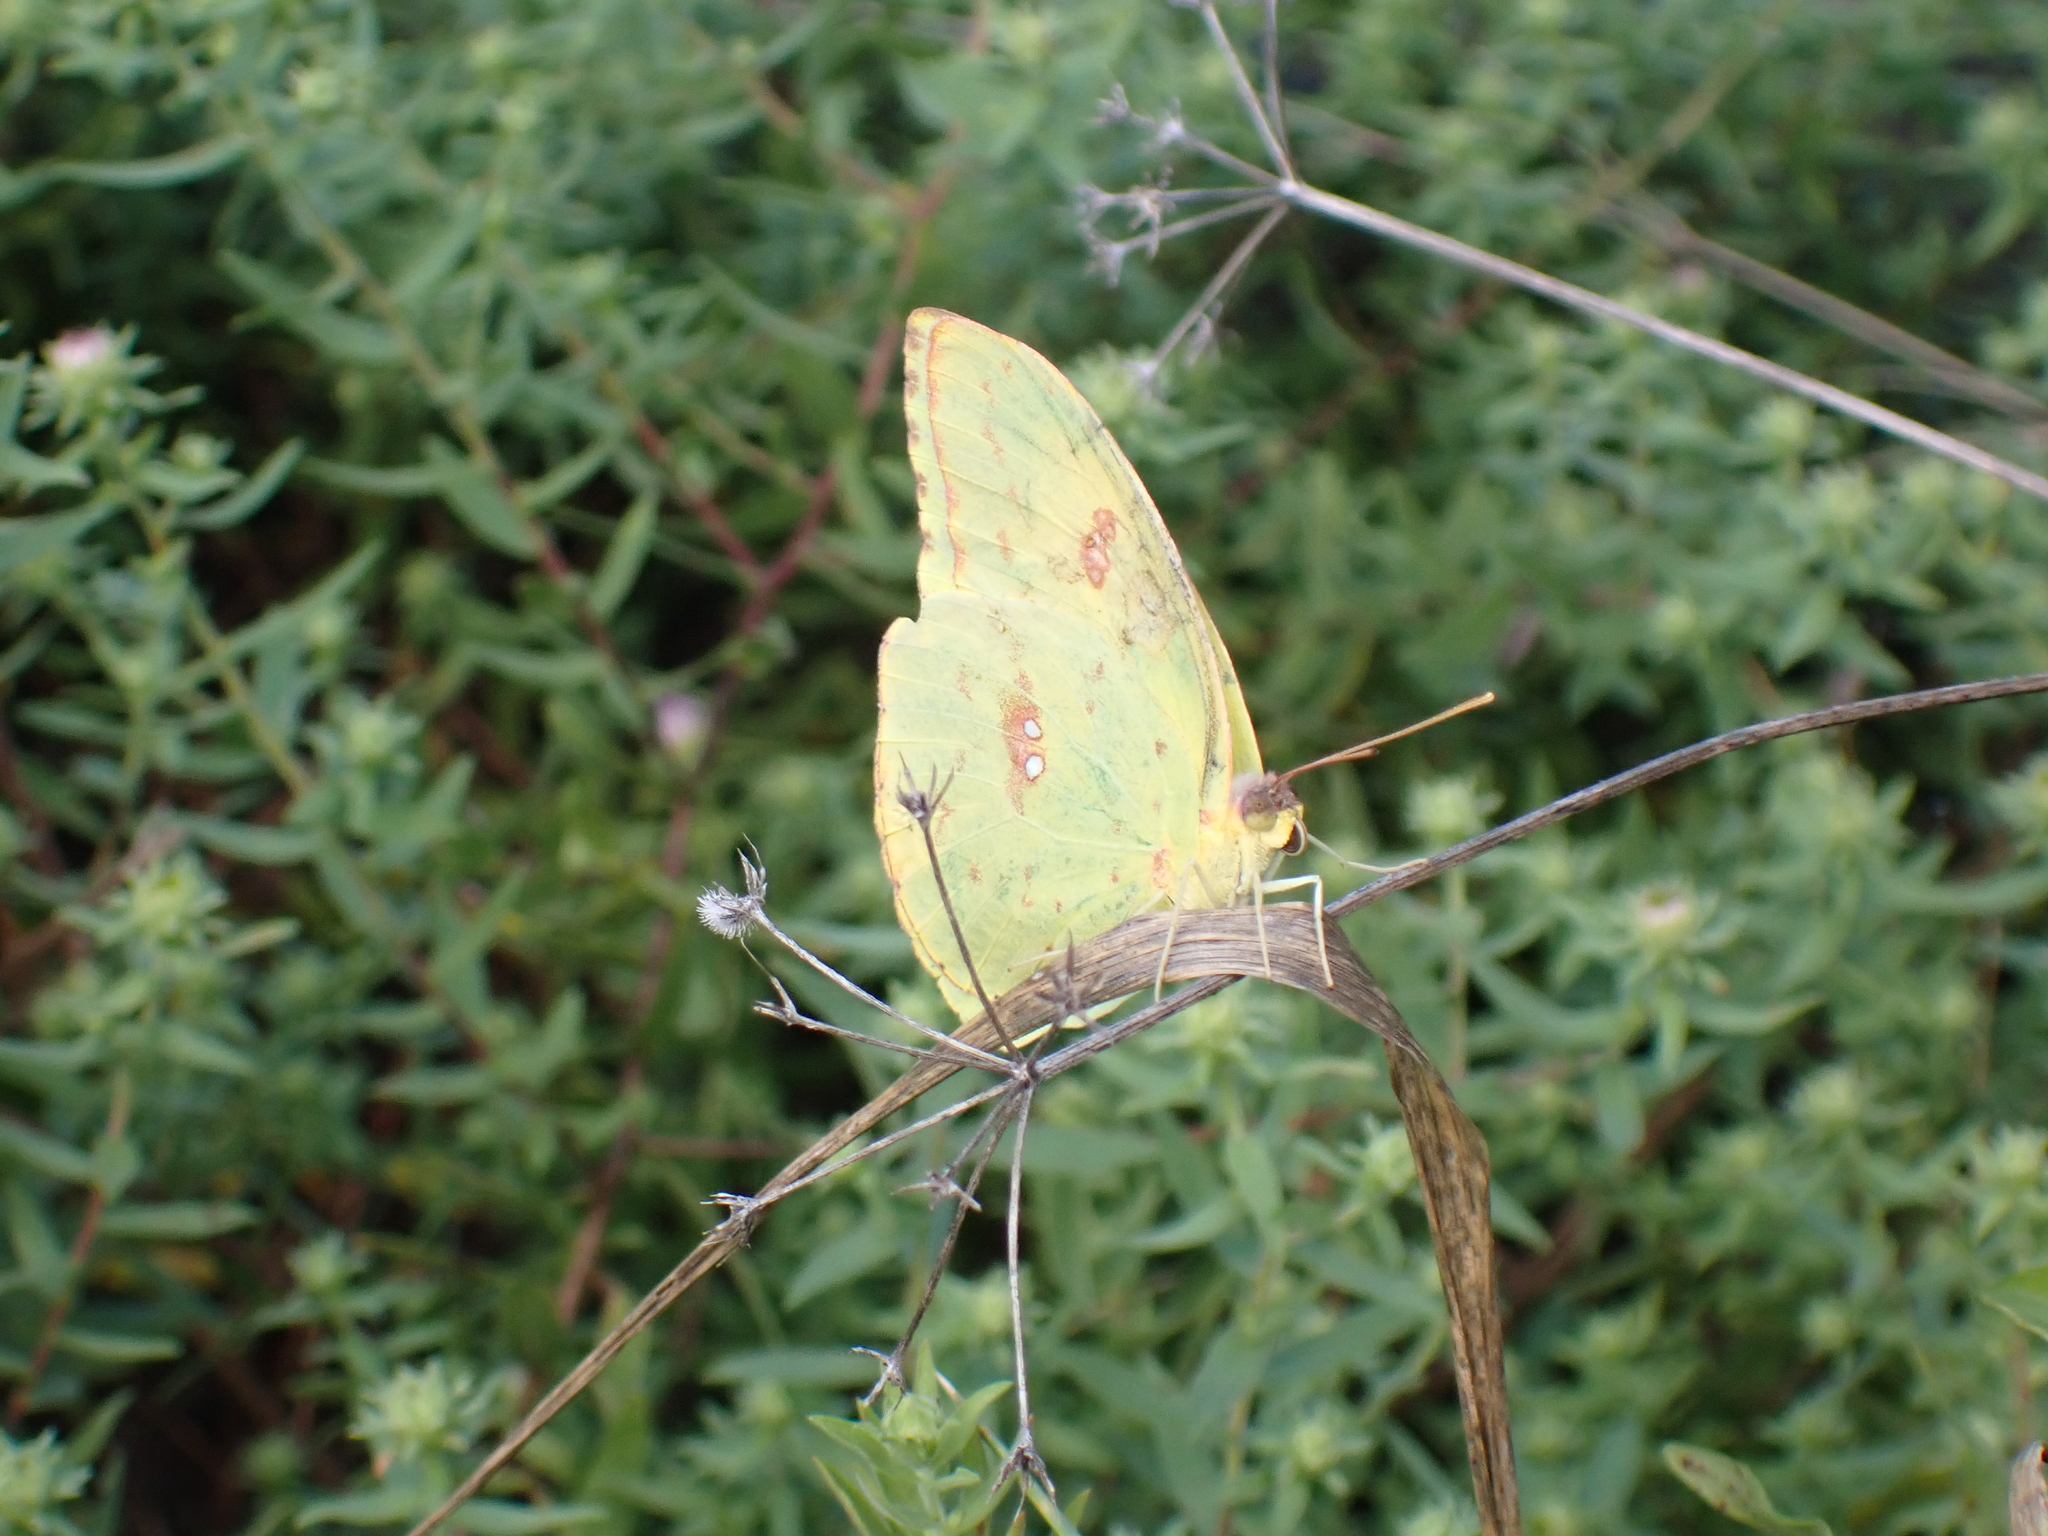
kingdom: Animalia
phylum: Arthropoda
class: Insecta
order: Lepidoptera
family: Pieridae
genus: Phoebis
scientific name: Phoebis sennae
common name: Cloudless sulphur
